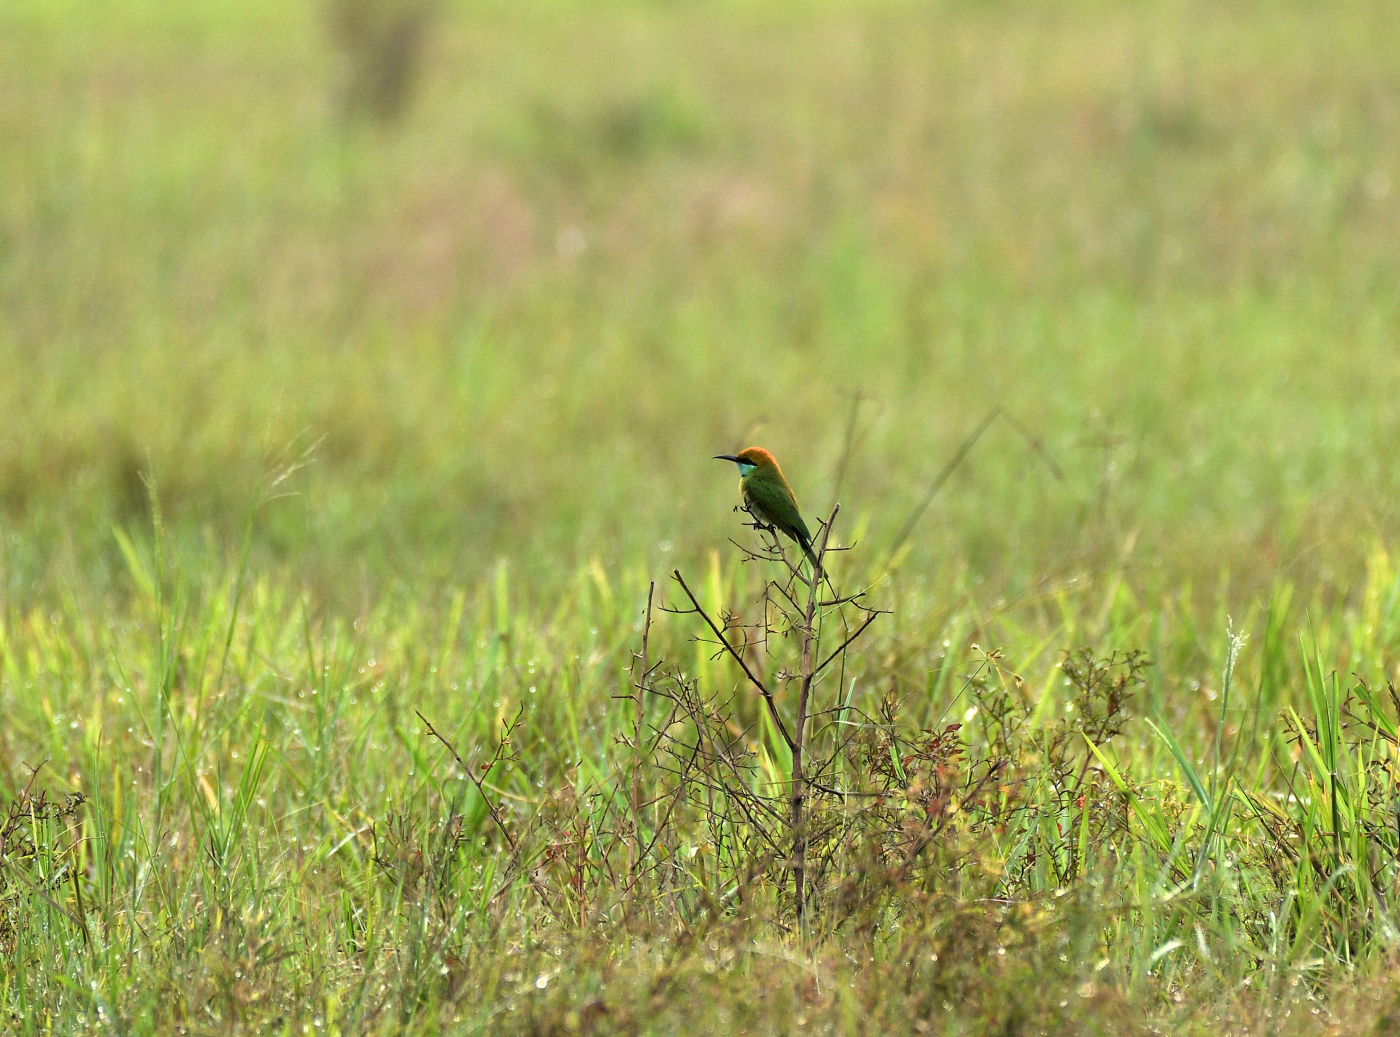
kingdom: Animalia
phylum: Chordata
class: Aves
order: Coraciiformes
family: Meropidae
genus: Merops
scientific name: Merops orientalis
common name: Green bee-eater
